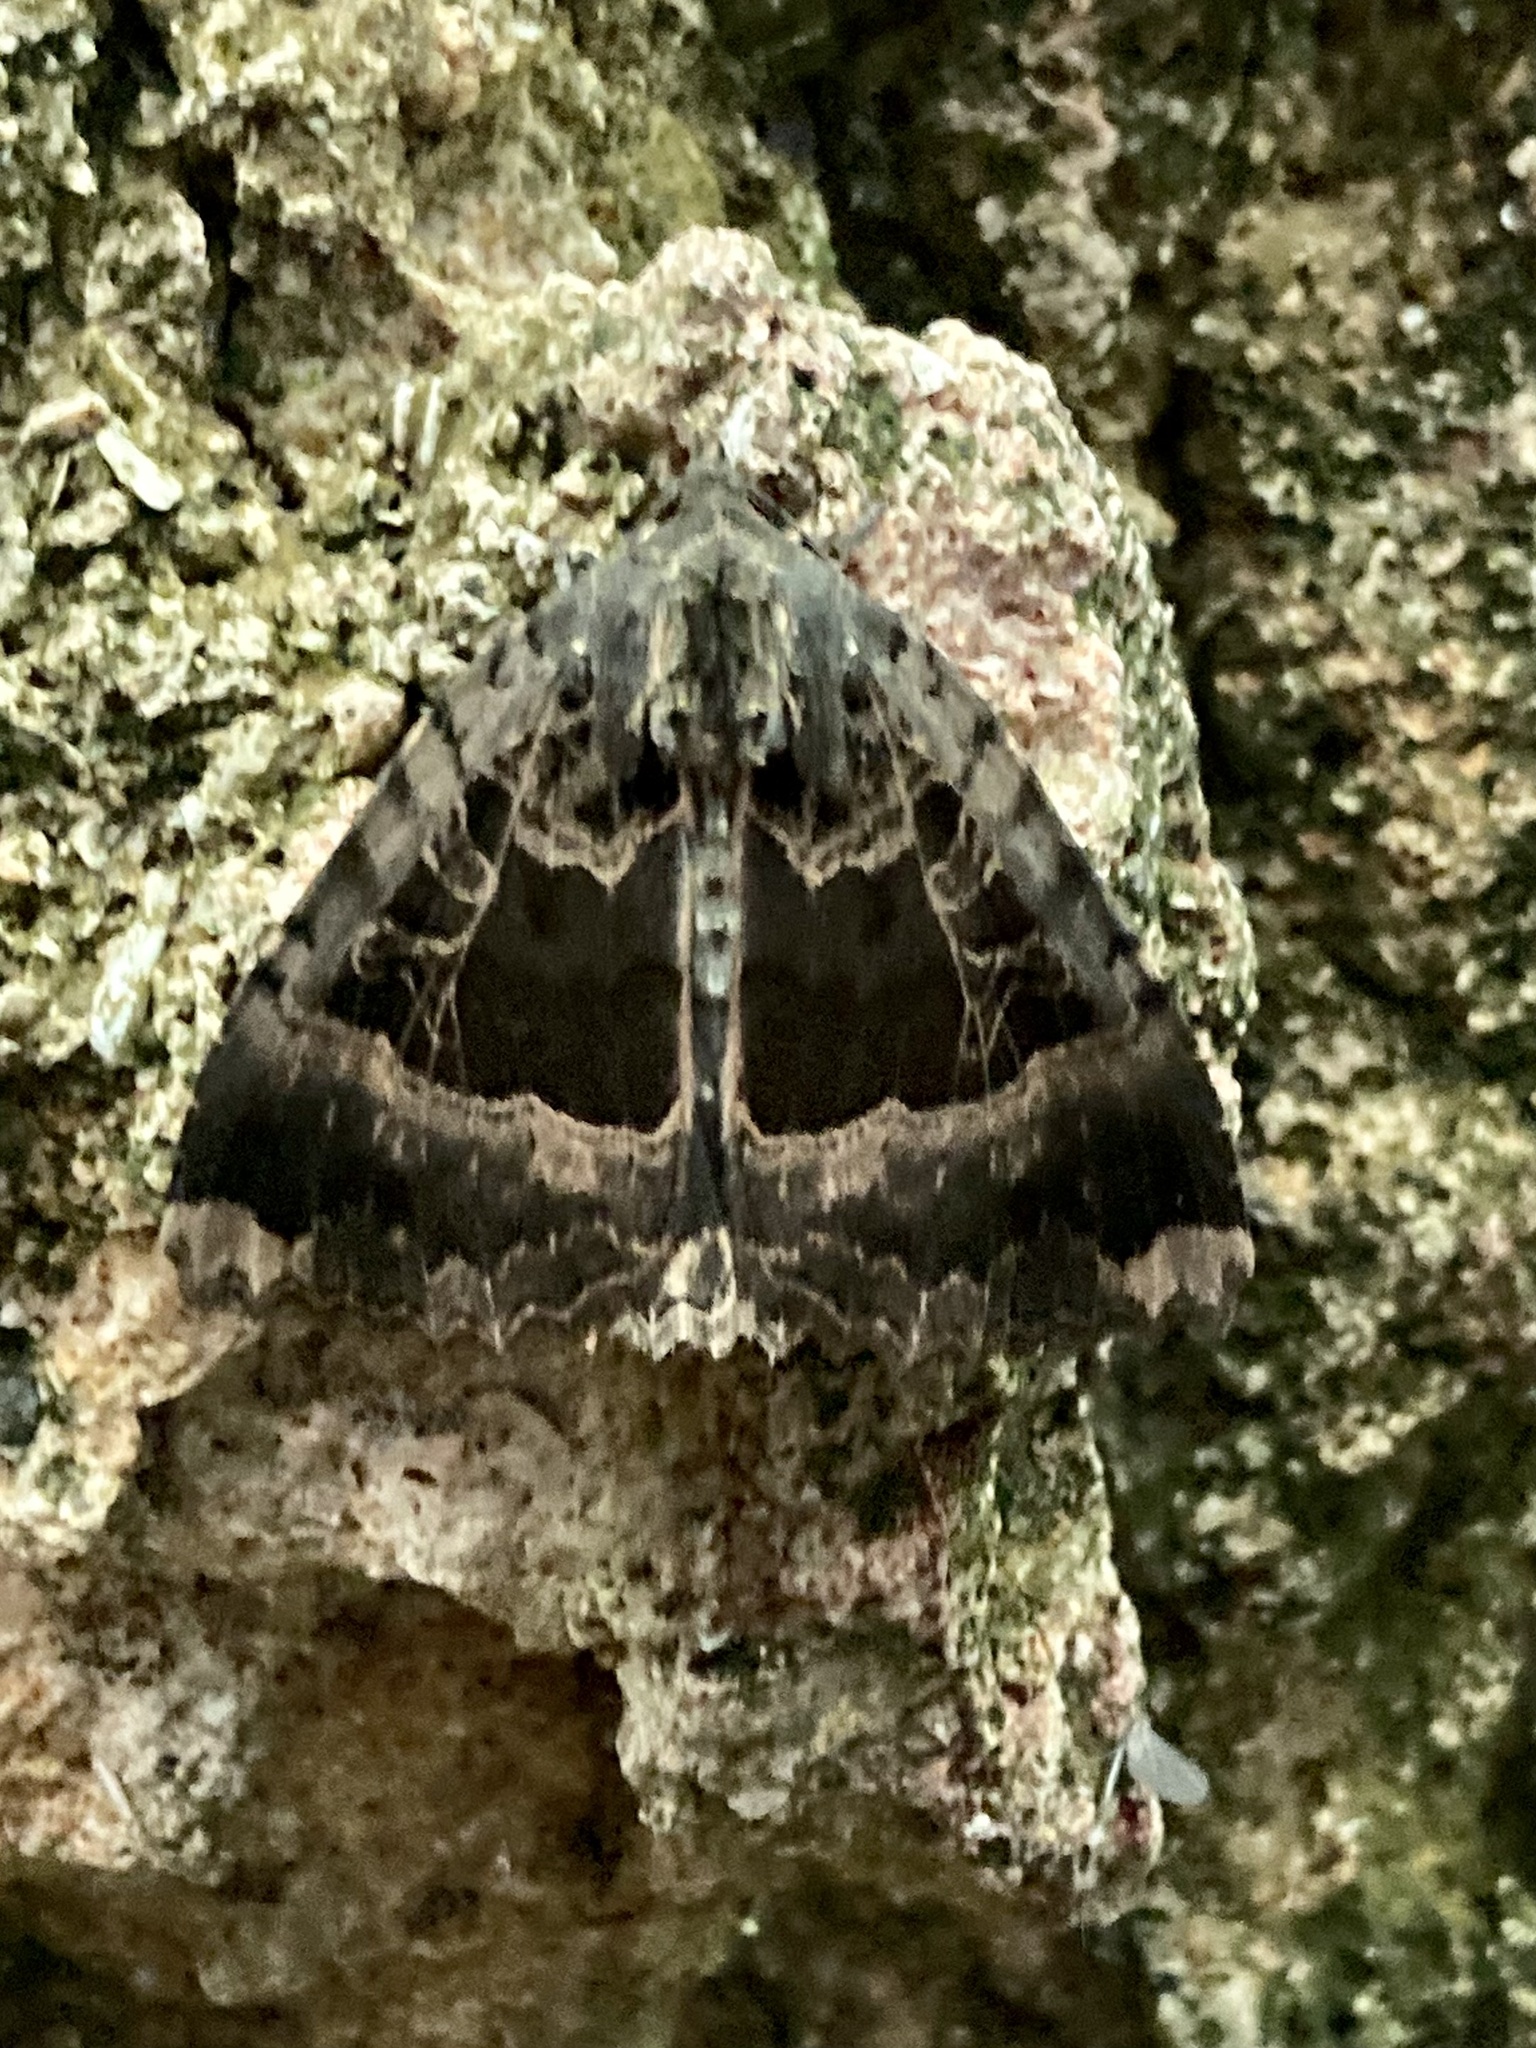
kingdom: Animalia
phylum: Arthropoda
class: Insecta
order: Lepidoptera
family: Noctuidae
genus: Mormo
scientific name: Mormo maura
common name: Old lady
